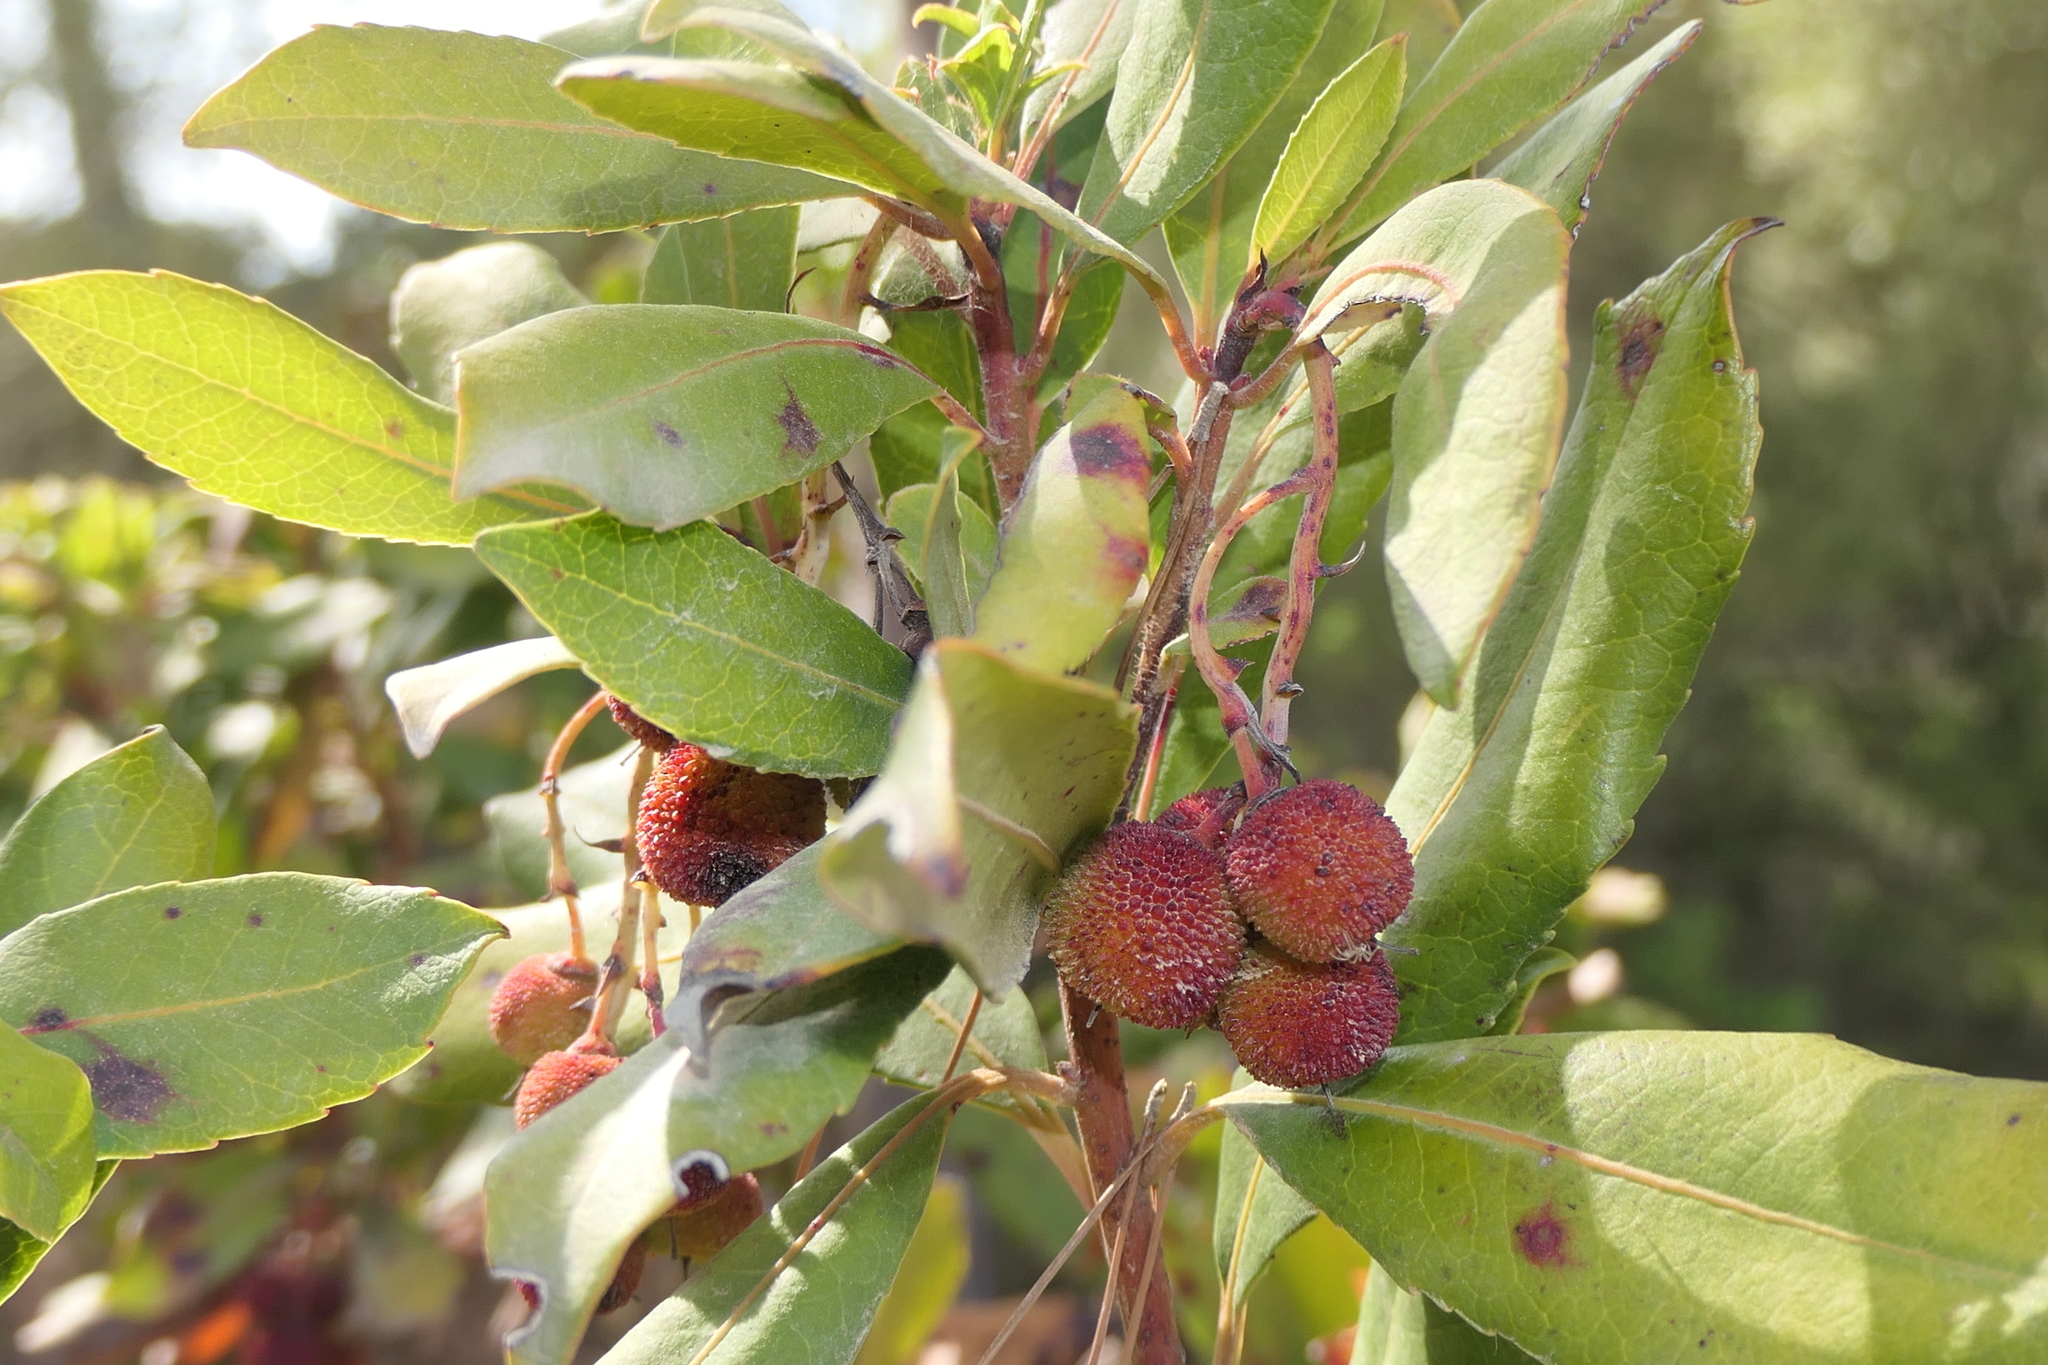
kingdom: Plantae
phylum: Tracheophyta
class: Magnoliopsida
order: Ericales
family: Ericaceae
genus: Arbutus
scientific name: Arbutus unedo
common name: Strawberry-tree
